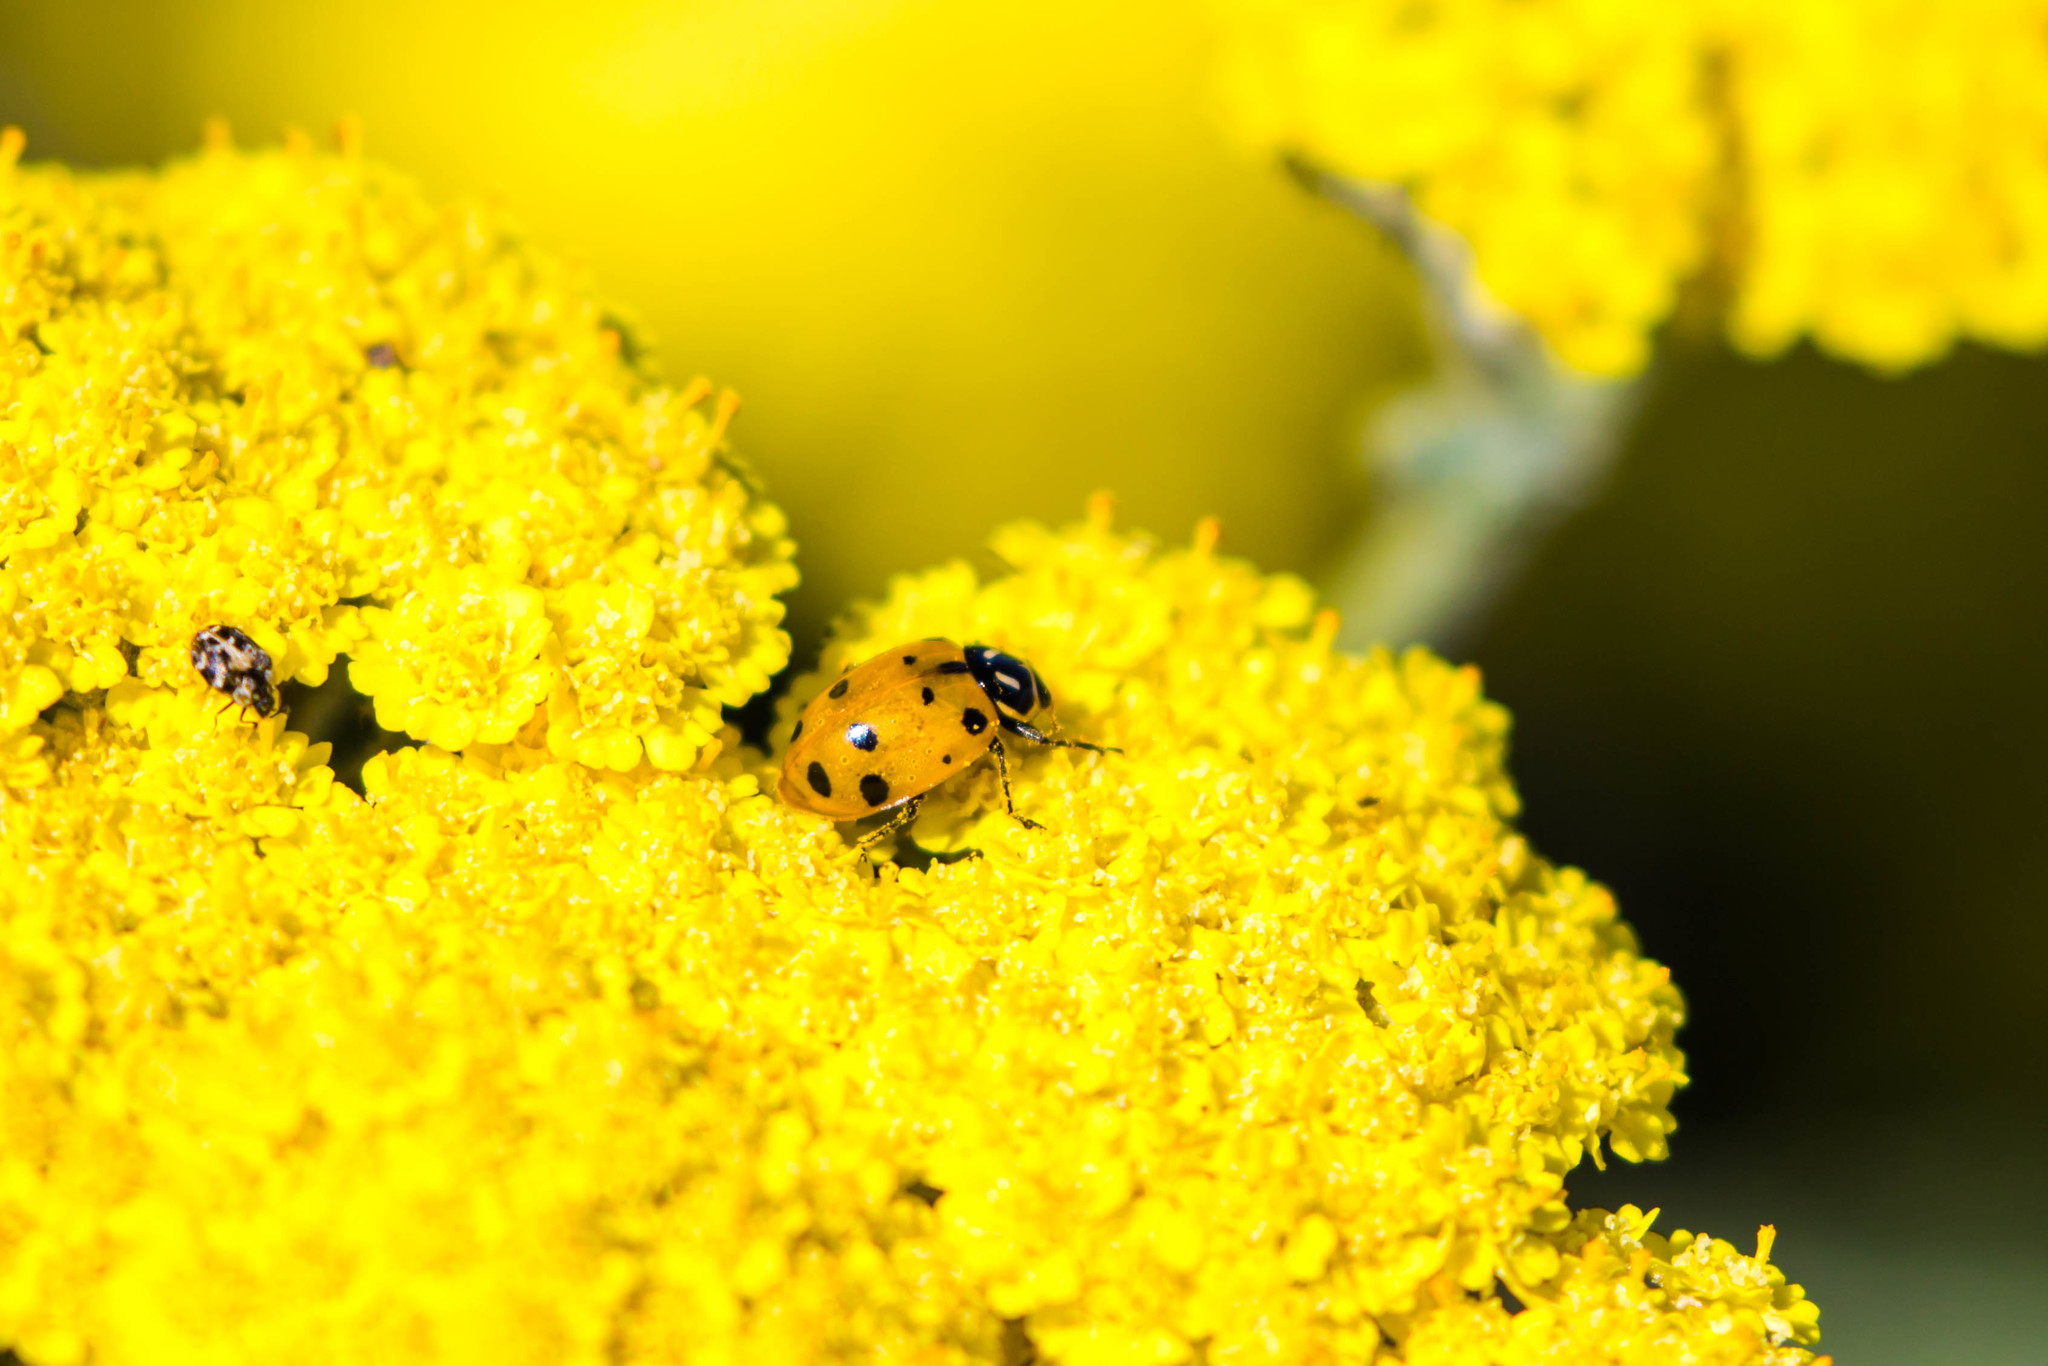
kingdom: Animalia
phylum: Arthropoda
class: Insecta
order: Coleoptera
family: Coccinellidae
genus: Hippodamia
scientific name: Hippodamia convergens
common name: Convergent lady beetle
